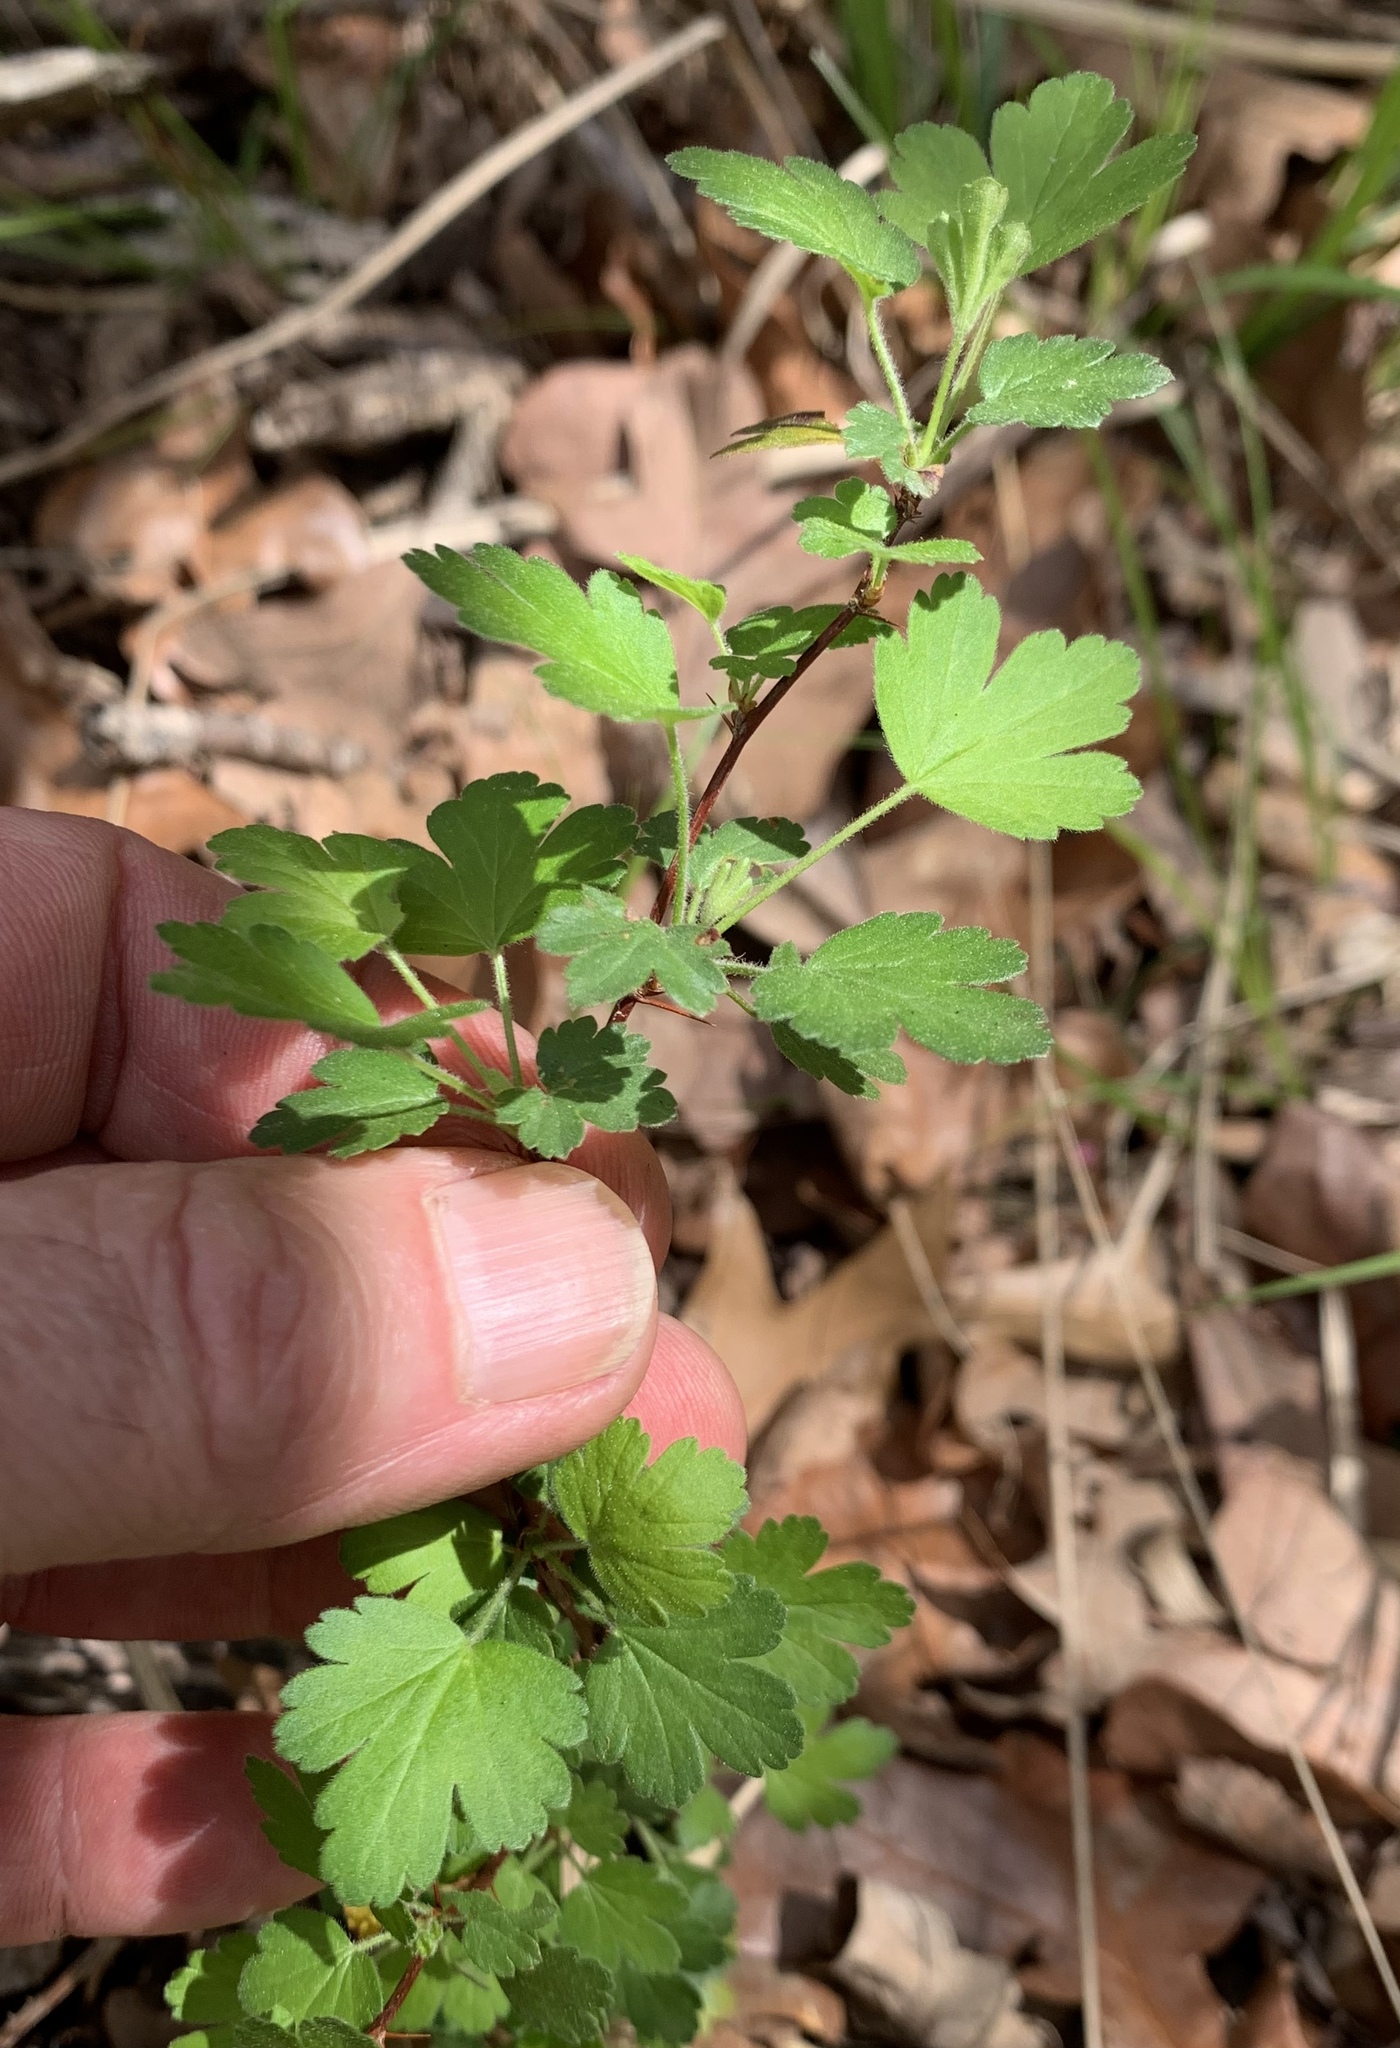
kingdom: Plantae
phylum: Tracheophyta
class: Magnoliopsida
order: Saxifragales
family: Grossulariaceae
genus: Ribes
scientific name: Ribes curvatum
